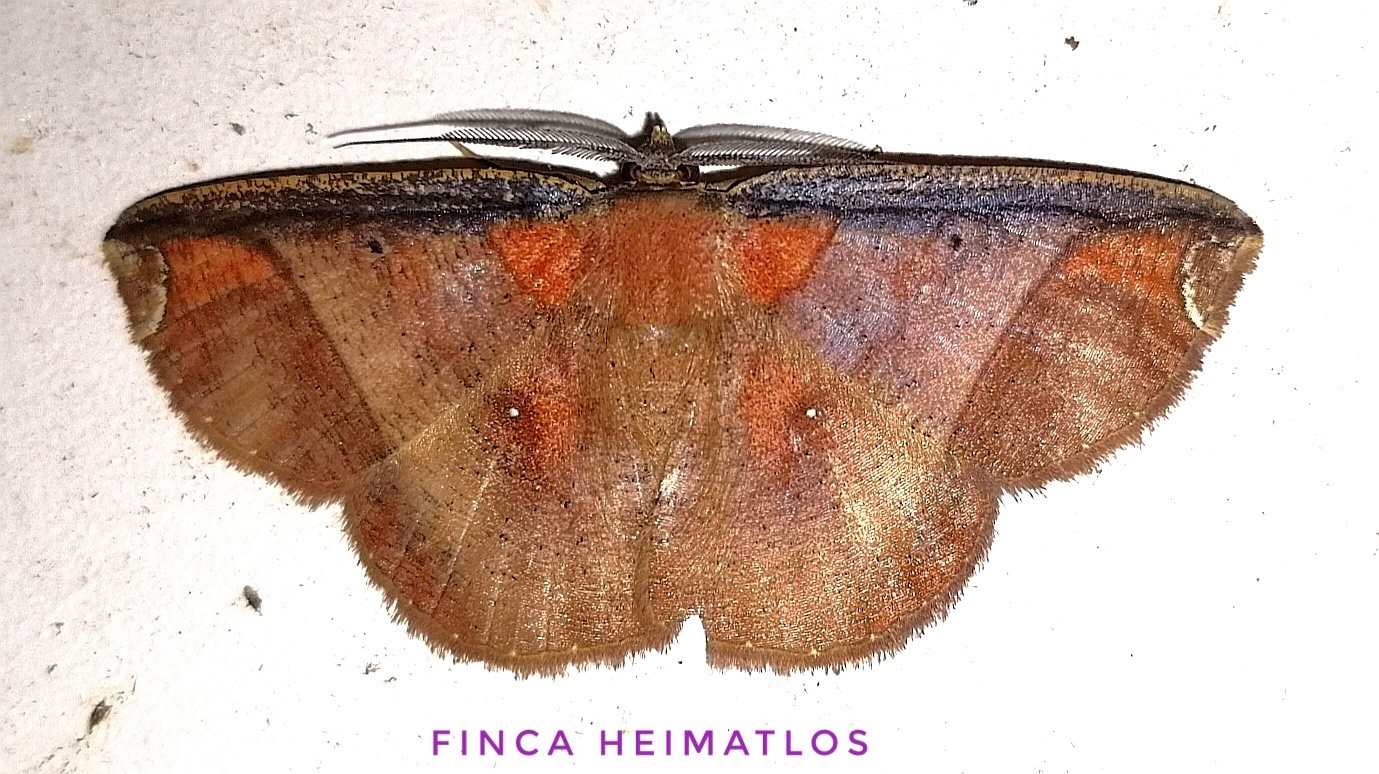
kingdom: Animalia
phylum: Arthropoda
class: Insecta
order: Lepidoptera
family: Geometridae
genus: Thysanopyga
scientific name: Thysanopyga abdominaria
